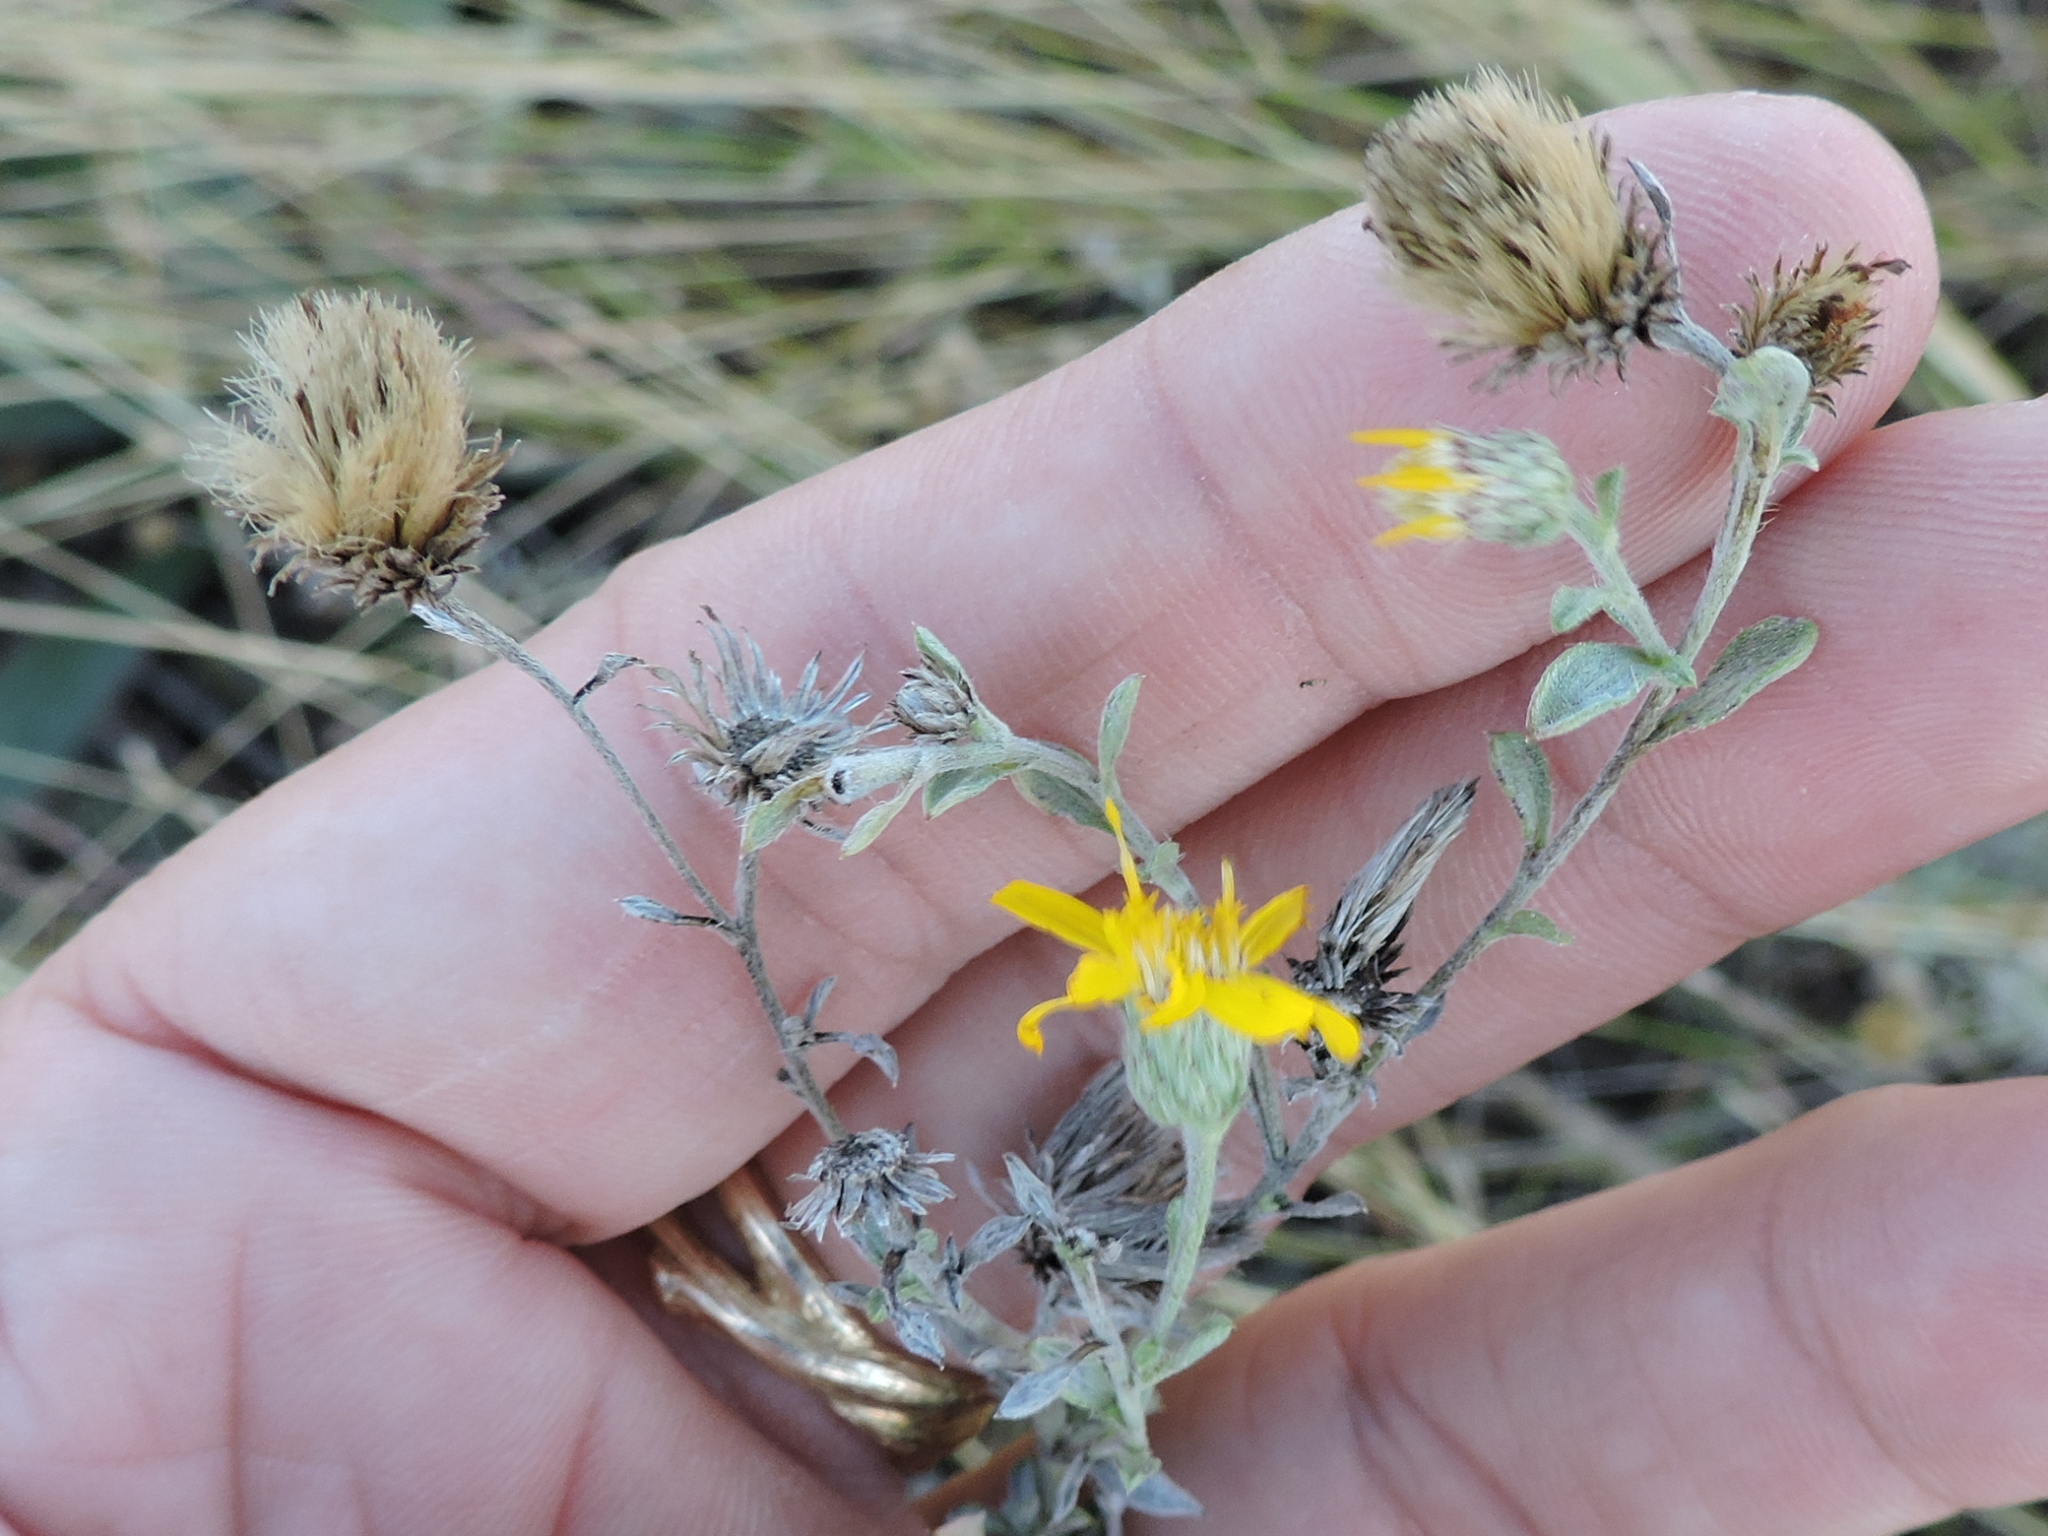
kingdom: Plantae
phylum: Tracheophyta
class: Magnoliopsida
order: Asterales
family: Asteraceae
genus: Heterotheca
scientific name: Heterotheca canescens
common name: Hoary golden-aster
